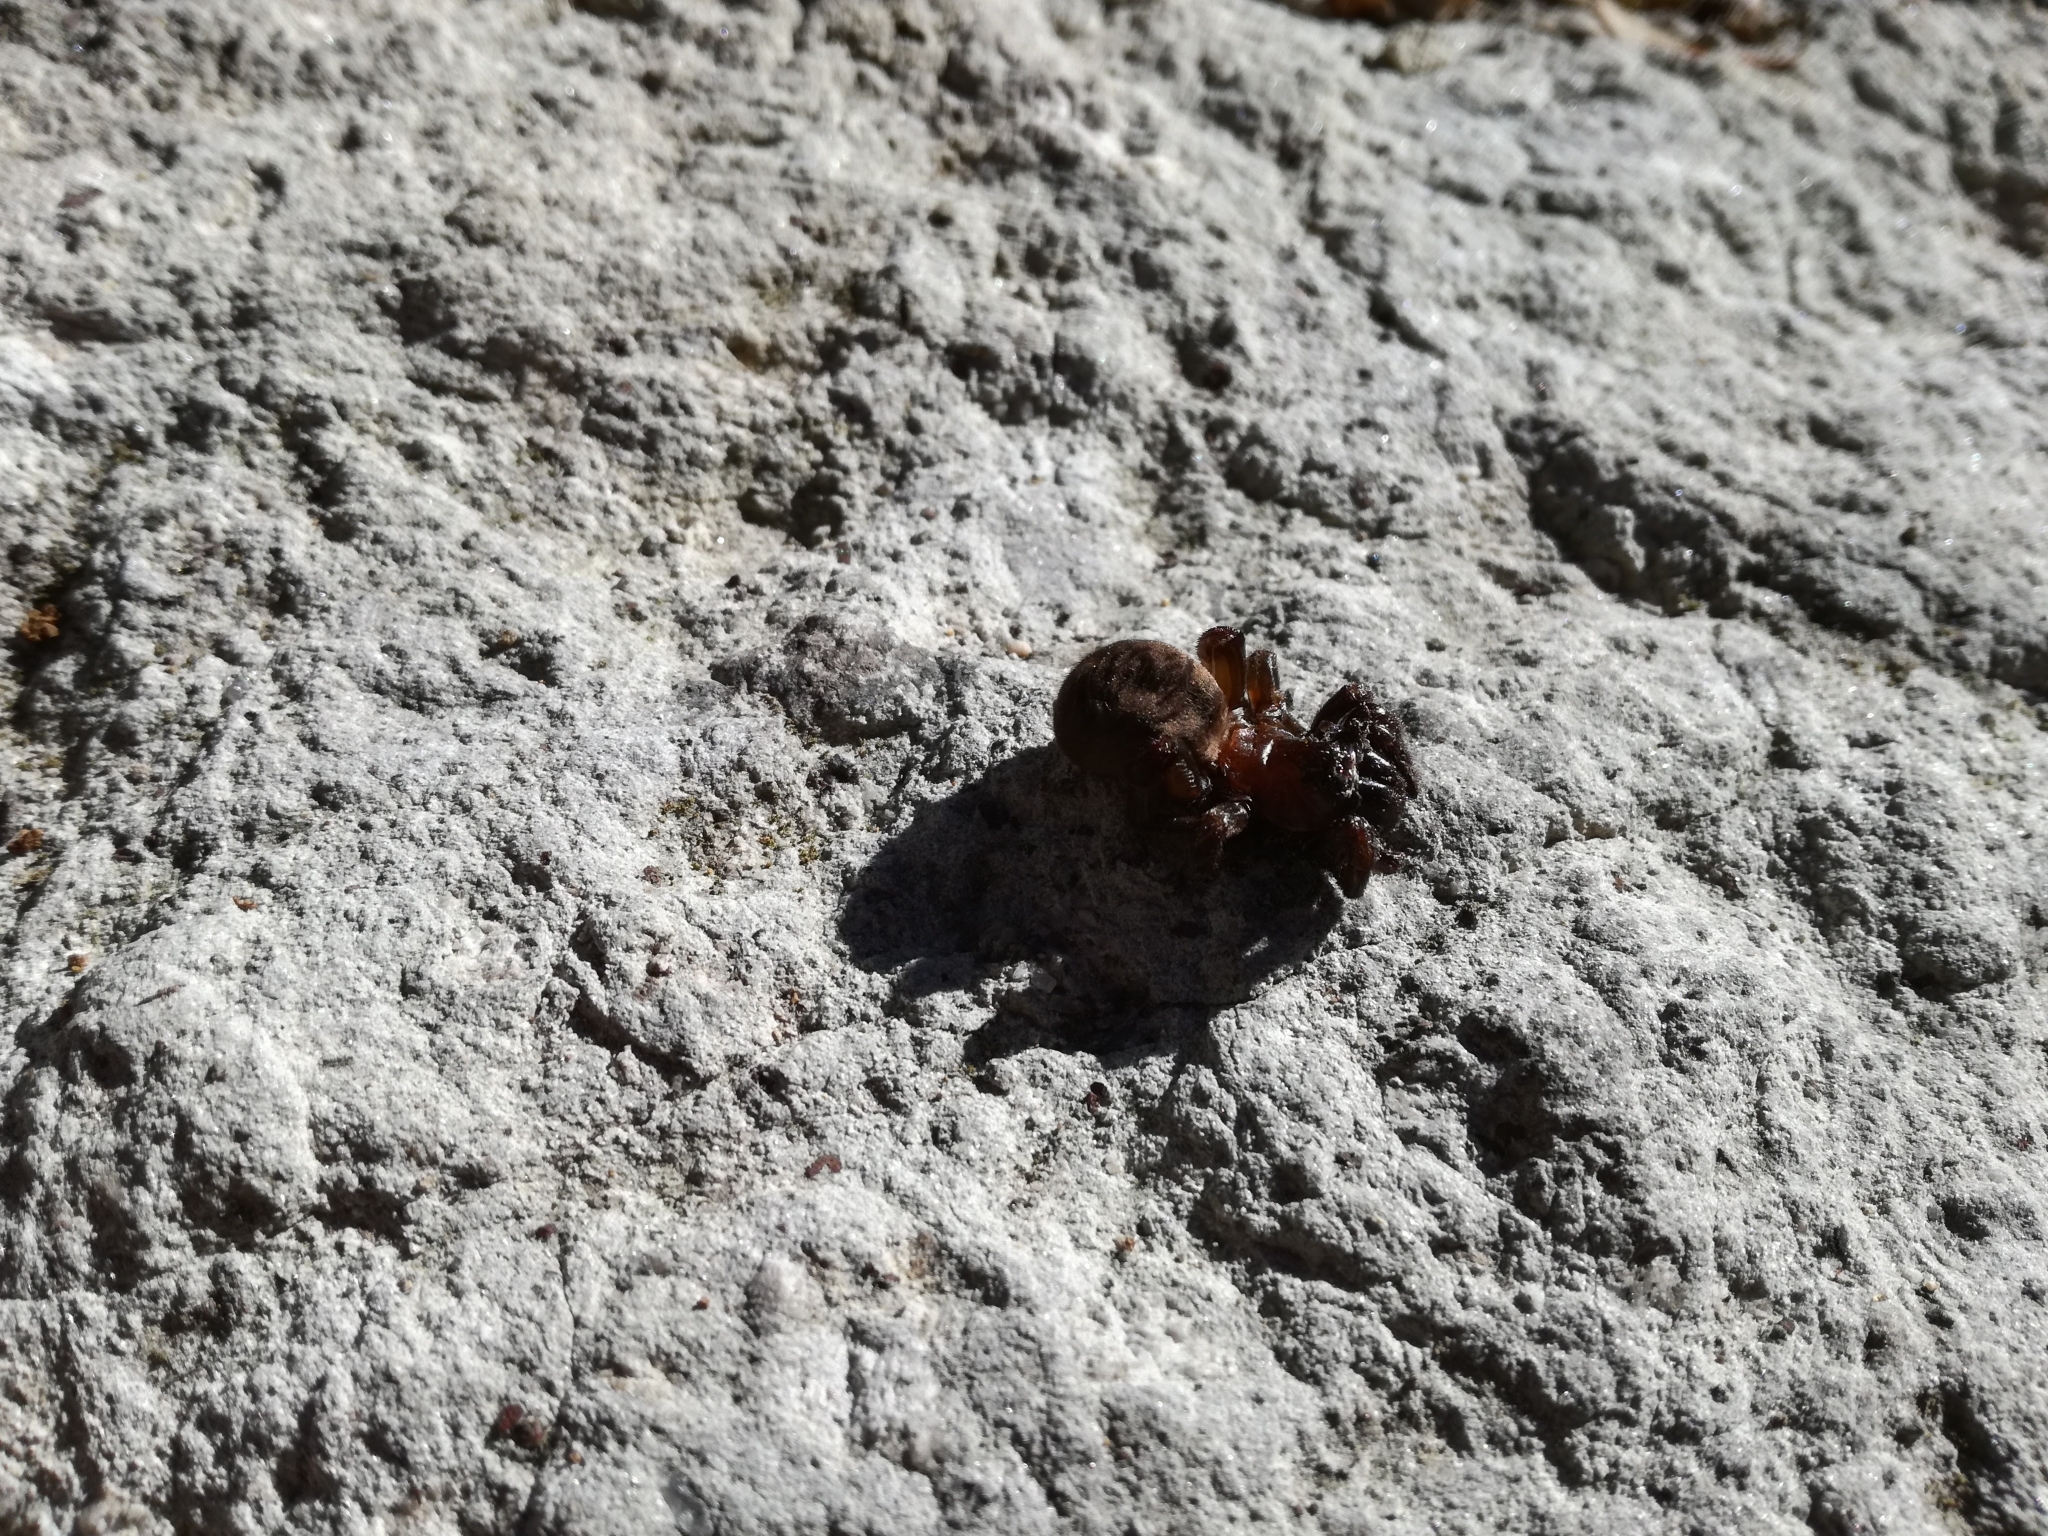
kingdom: Animalia
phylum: Arthropoda
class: Arachnida
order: Araneae
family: Nemesiidae
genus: Amblyocarenum
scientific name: Amblyocarenum nuragicum
